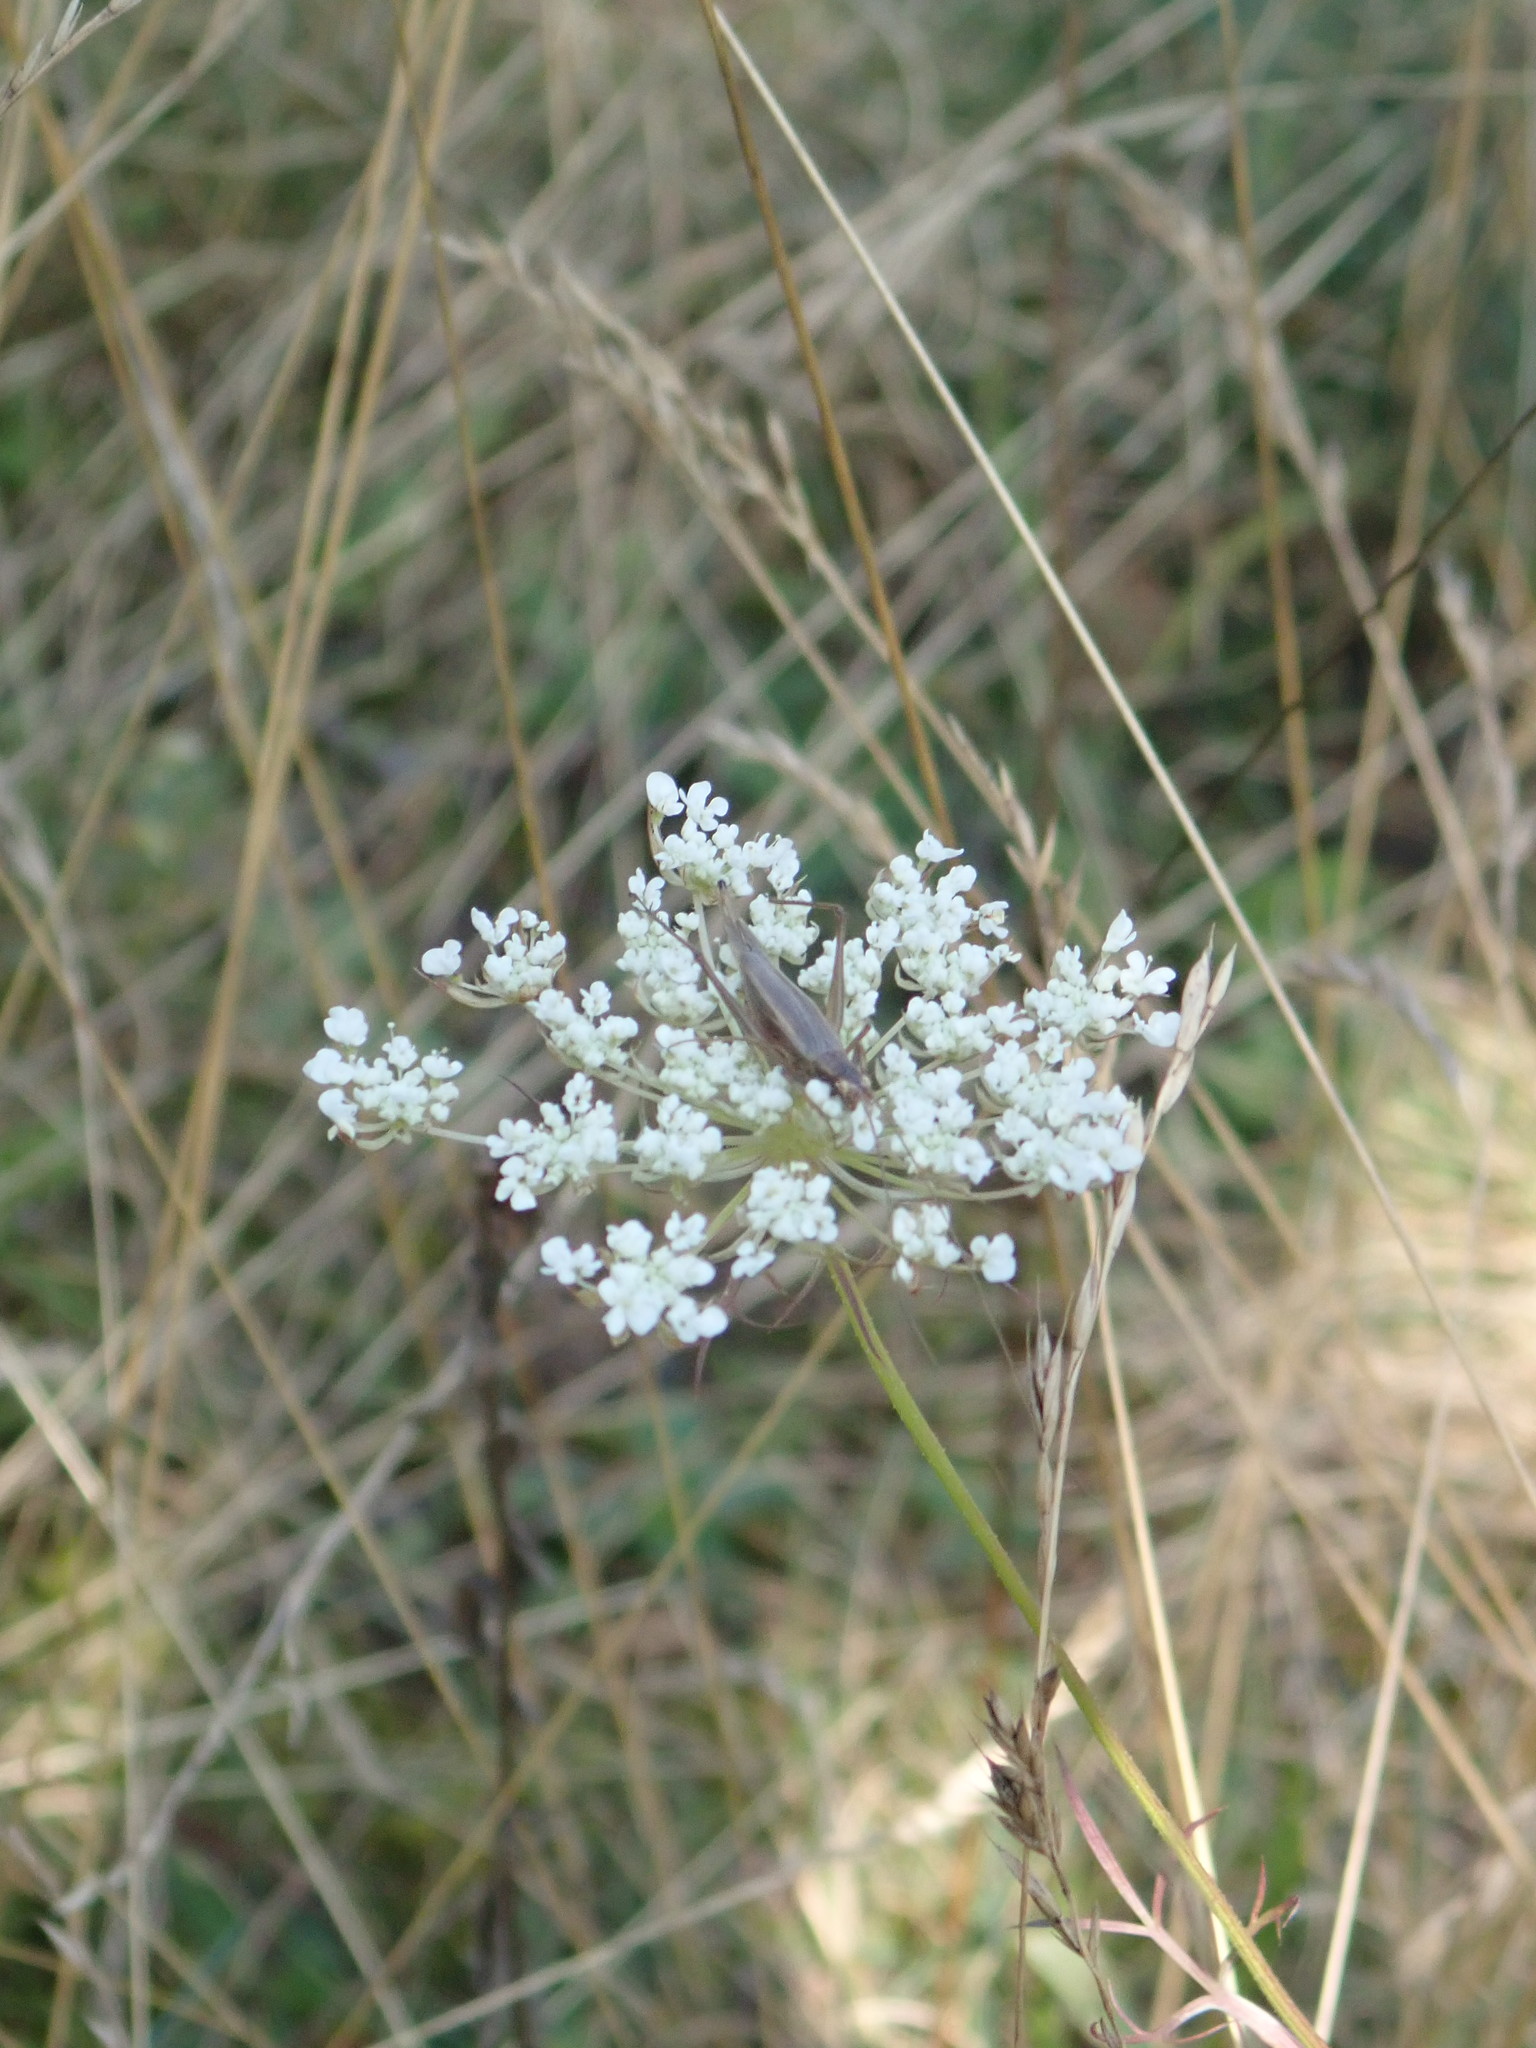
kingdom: Animalia
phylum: Arthropoda
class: Insecta
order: Orthoptera
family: Gryllidae
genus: Oecanthus
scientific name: Oecanthus pellucens
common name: Tree-cricket
